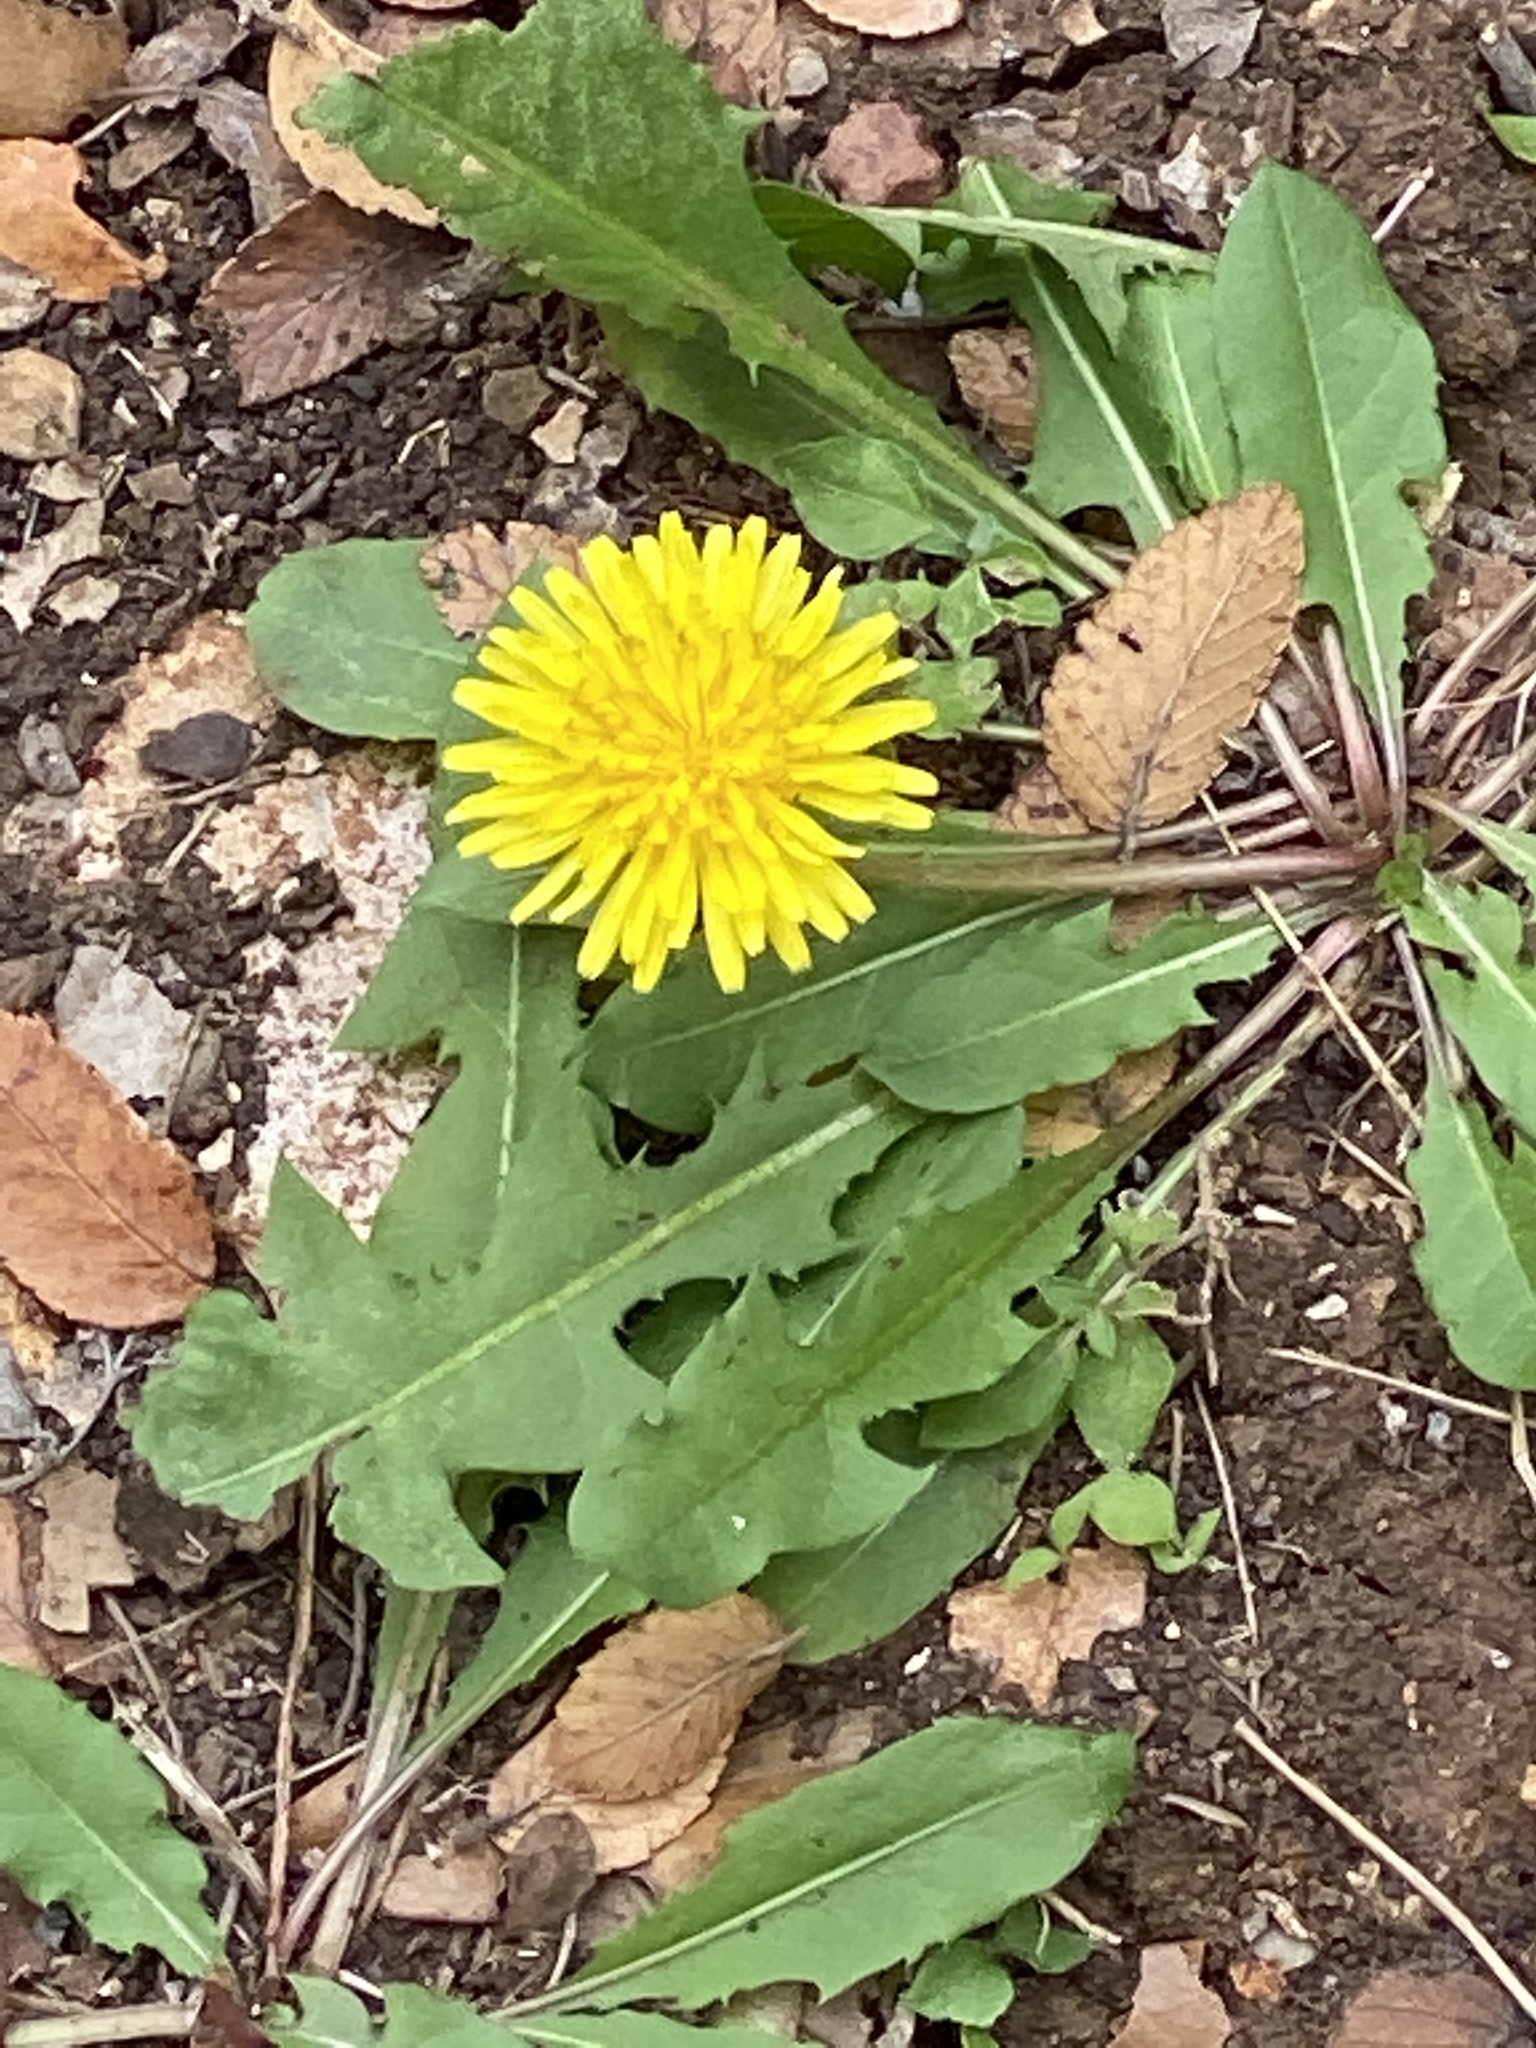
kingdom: Plantae
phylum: Tracheophyta
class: Magnoliopsida
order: Asterales
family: Asteraceae
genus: Taraxacum
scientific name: Taraxacum officinale
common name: Common dandelion
